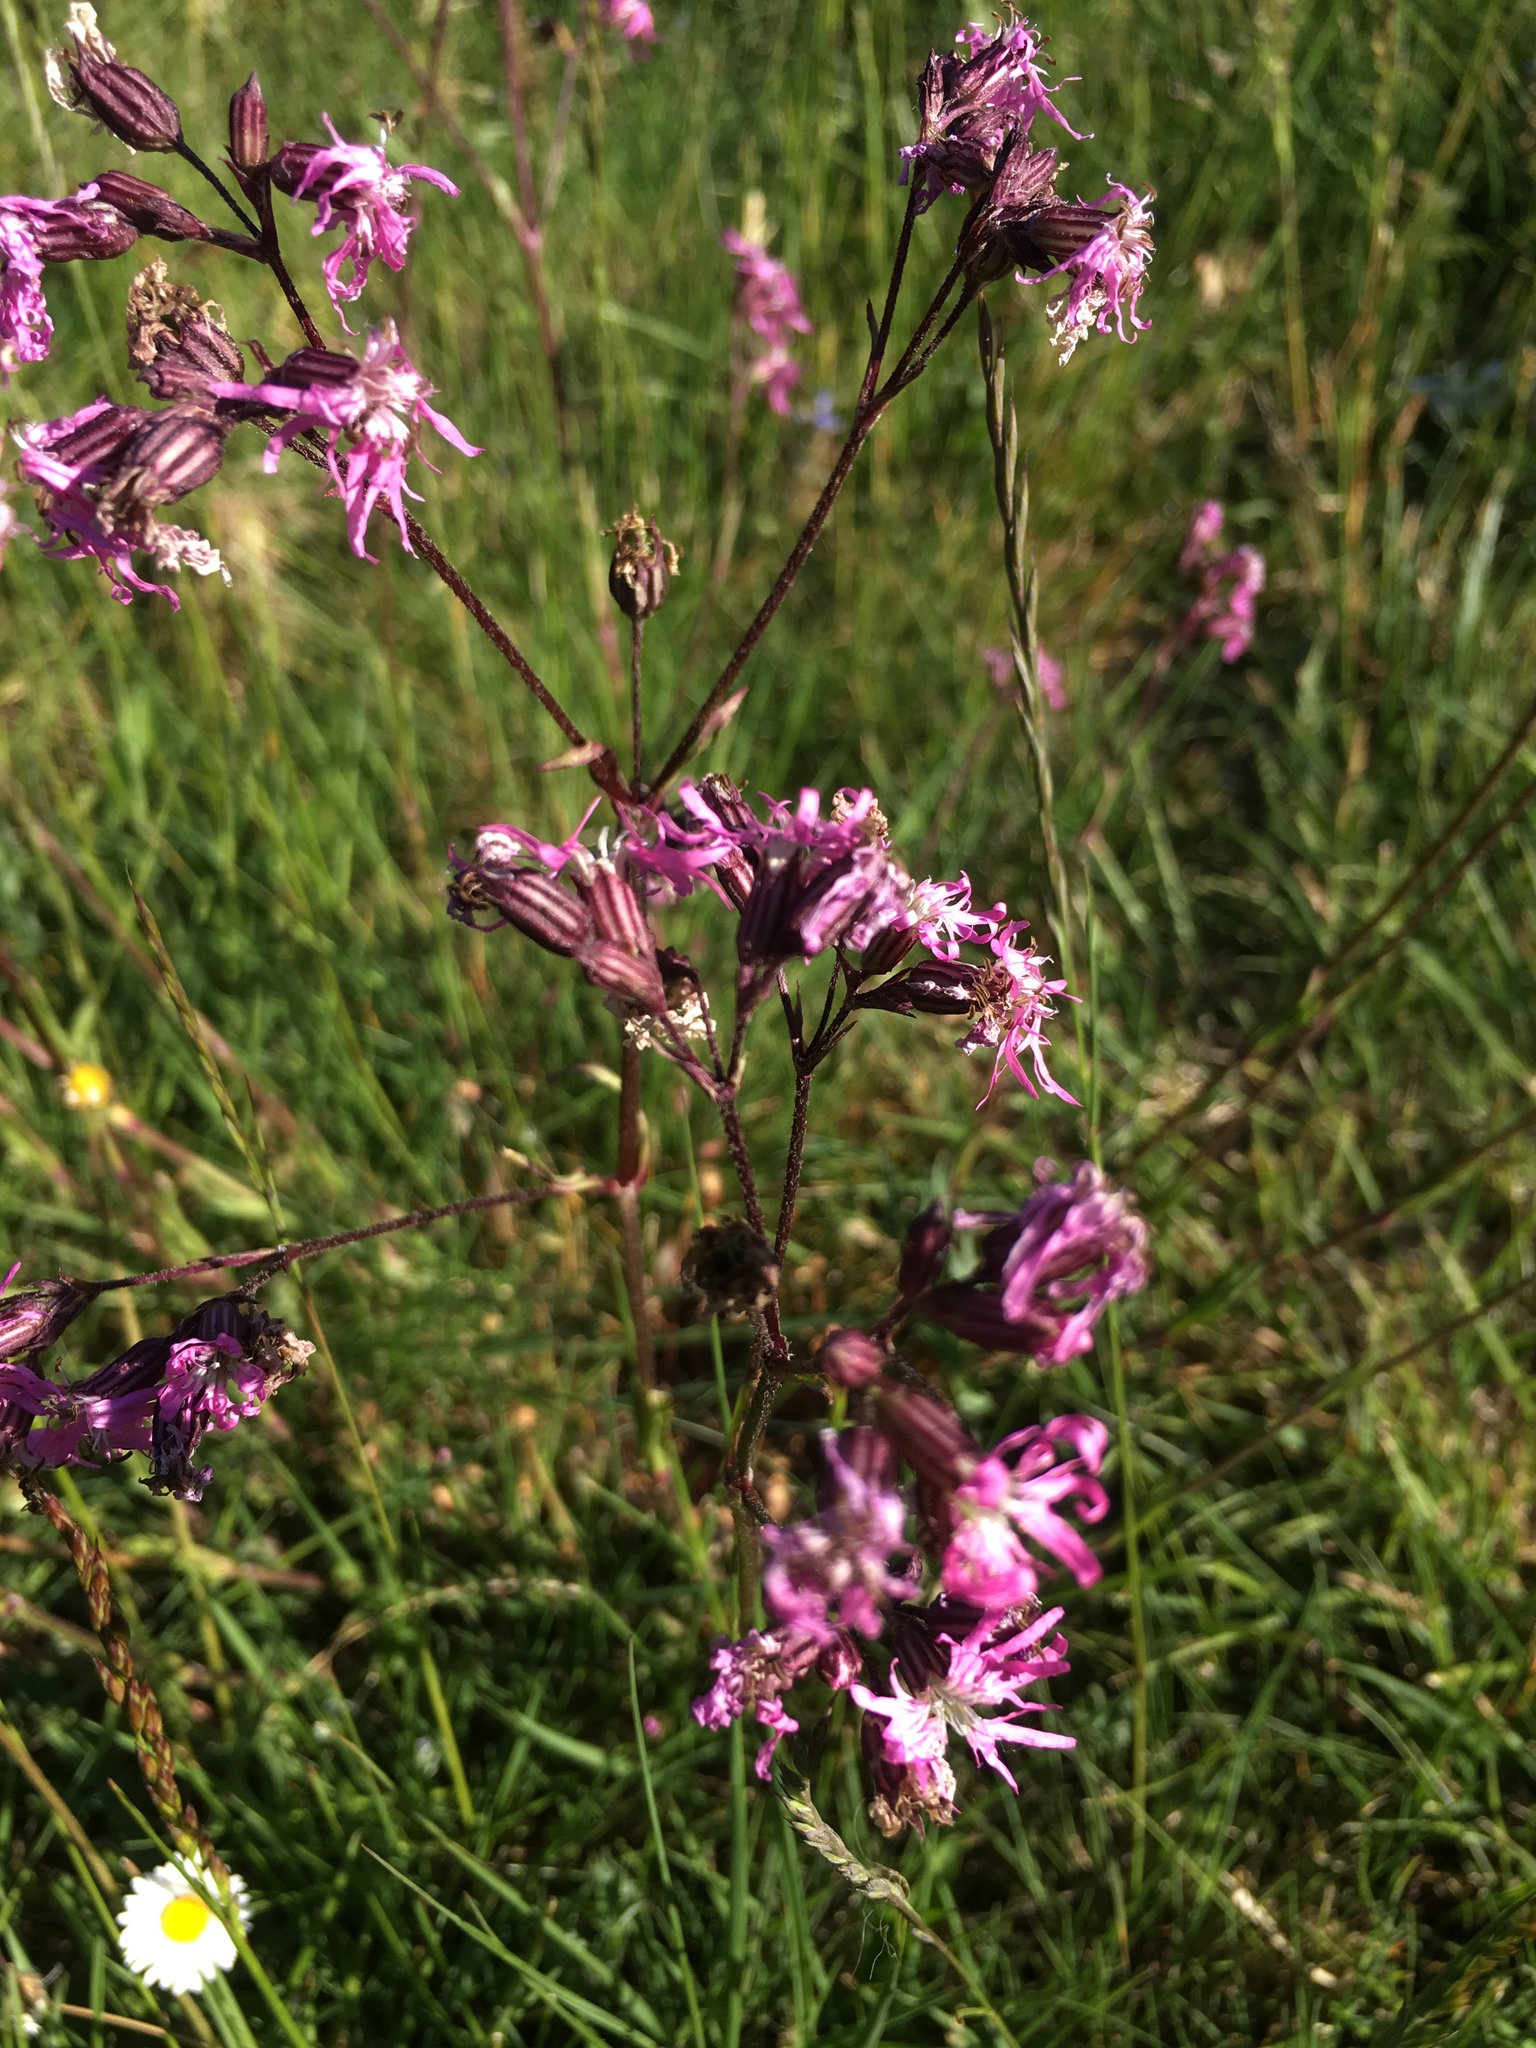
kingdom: Plantae
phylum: Tracheophyta
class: Magnoliopsida
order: Caryophyllales
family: Caryophyllaceae
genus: Silene
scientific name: Silene flos-cuculi
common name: Ragged-robin
